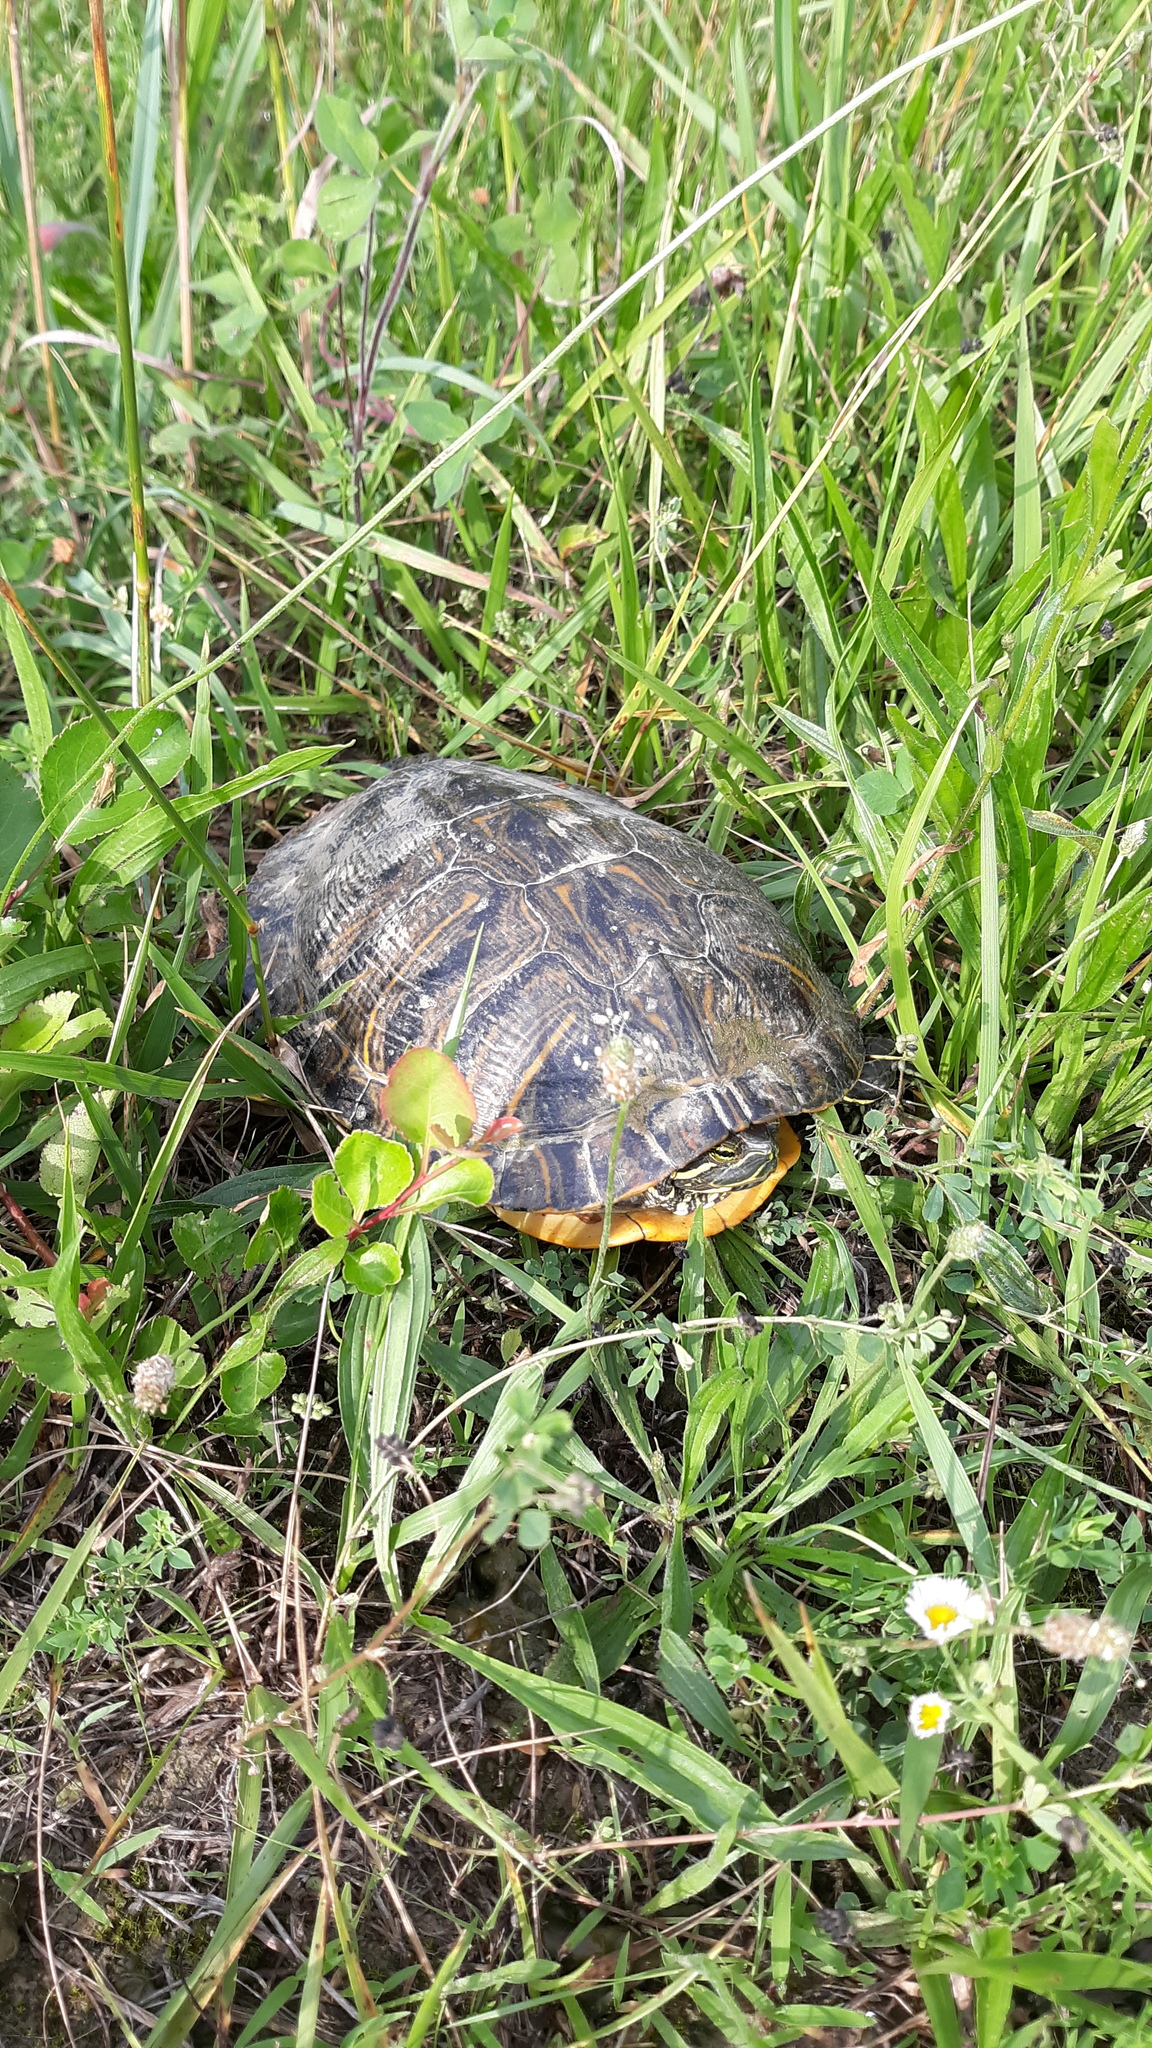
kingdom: Animalia
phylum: Chordata
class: Testudines
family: Emydidae
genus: Trachemys
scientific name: Trachemys scripta
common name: Slider
